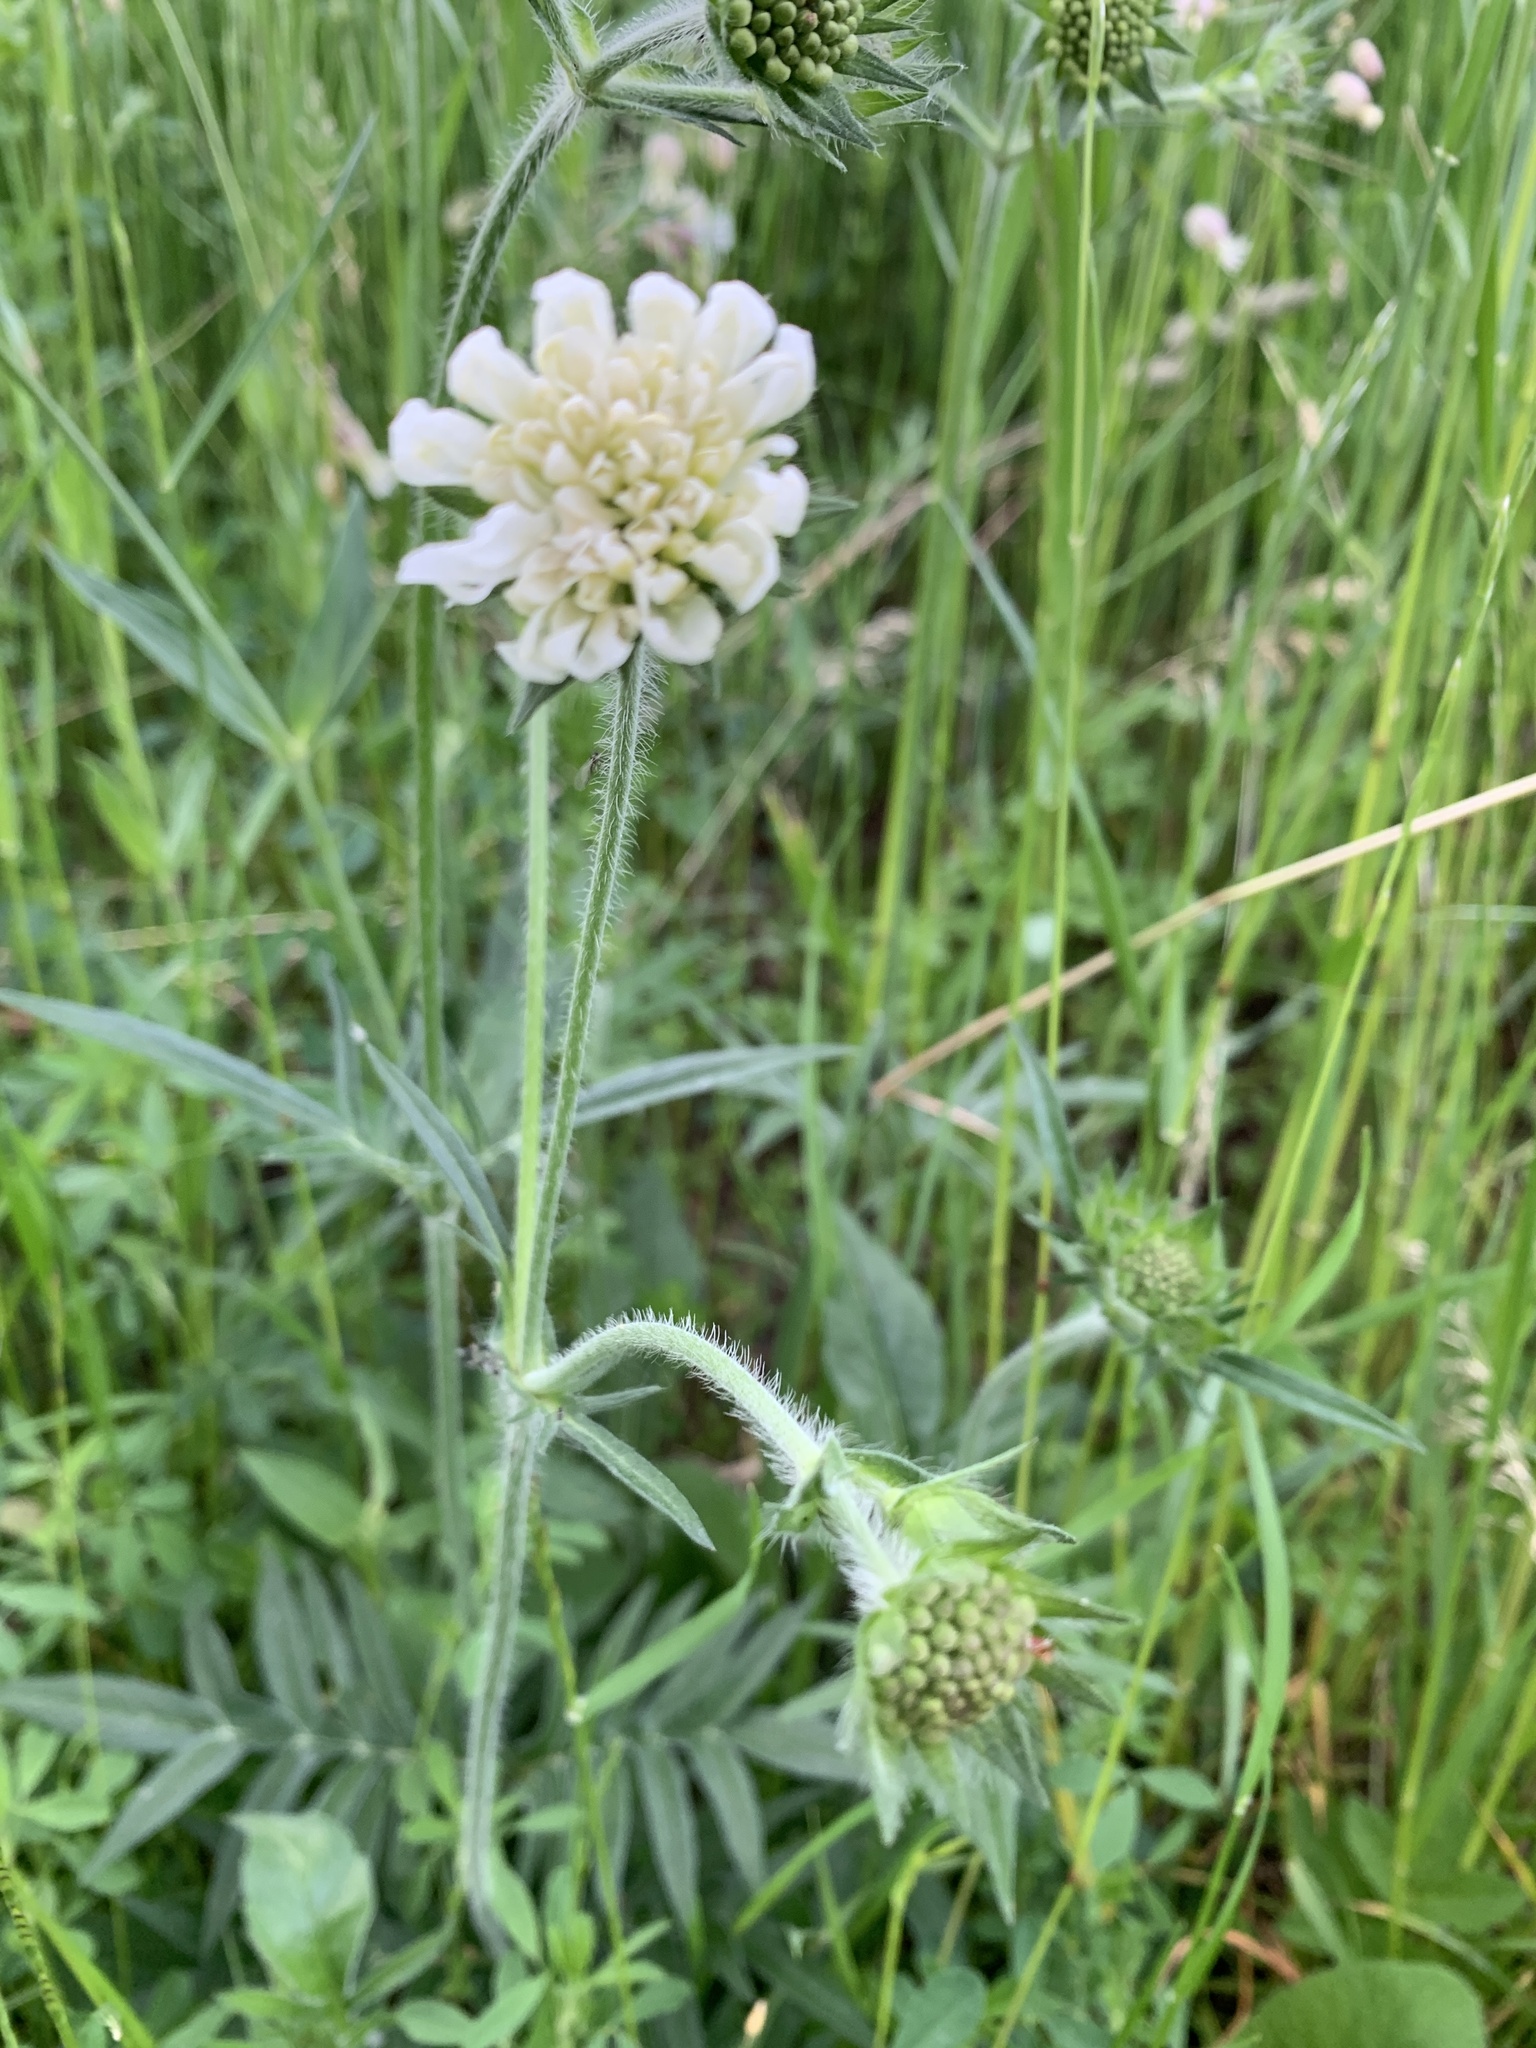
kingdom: Plantae
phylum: Tracheophyta
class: Magnoliopsida
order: Dipsacales
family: Caprifoliaceae
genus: Scabiosa
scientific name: Scabiosa ochroleuca
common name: Cream pincushions
